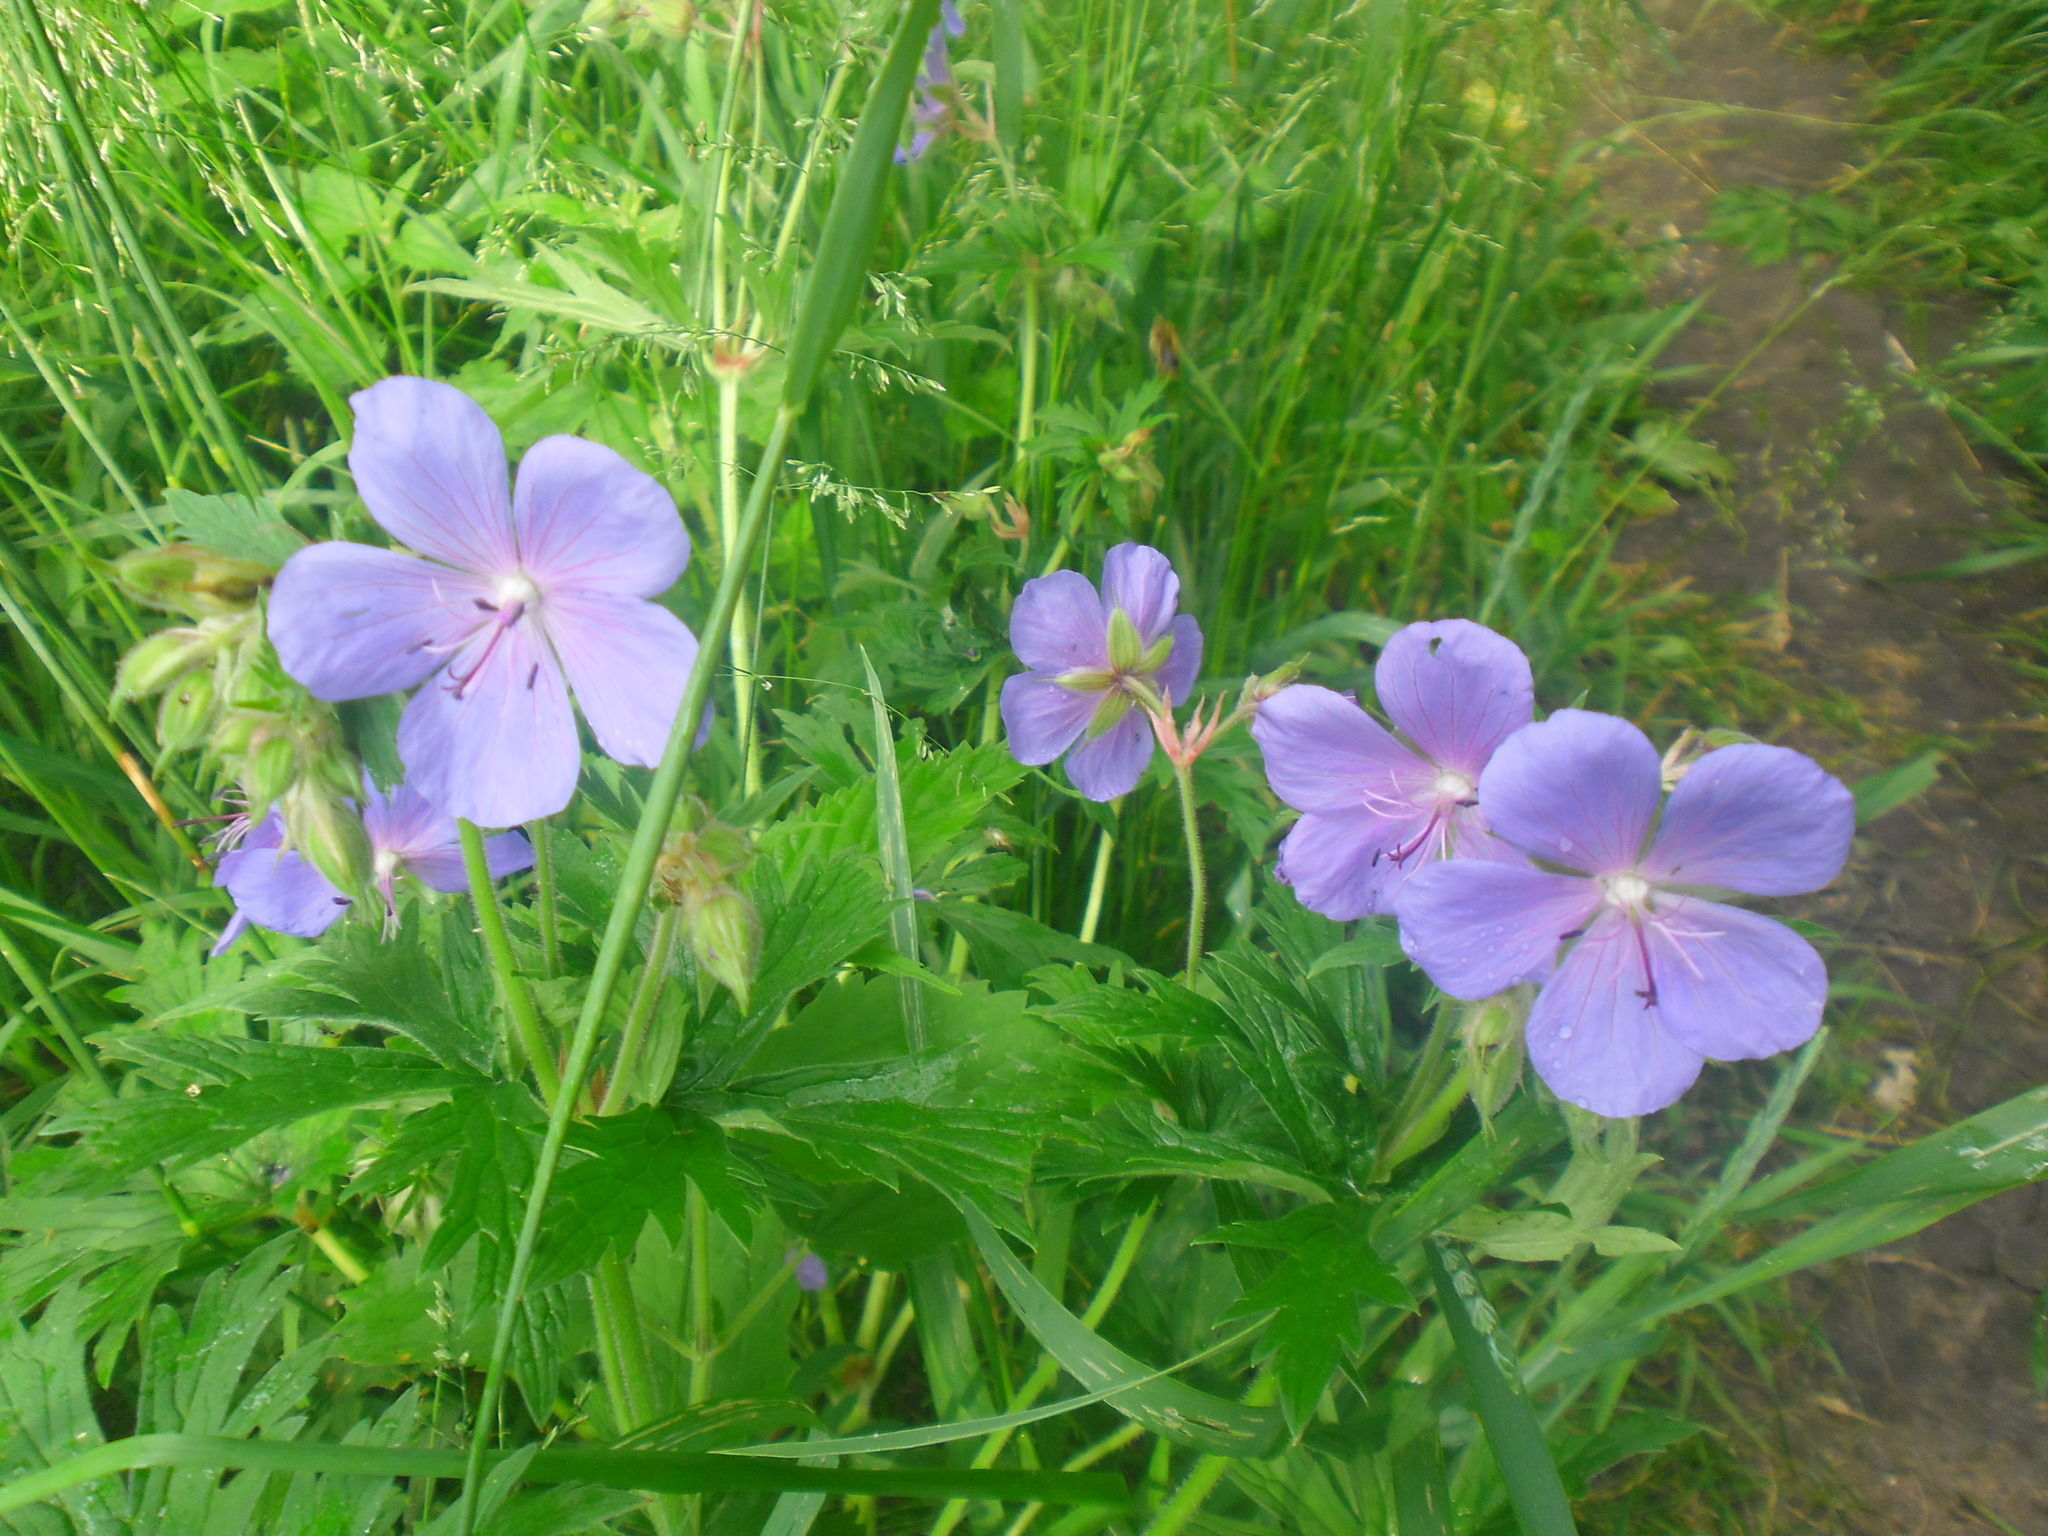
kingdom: Plantae
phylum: Tracheophyta
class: Magnoliopsida
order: Geraniales
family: Geraniaceae
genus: Geranium
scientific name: Geranium pratense
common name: Meadow crane's-bill
